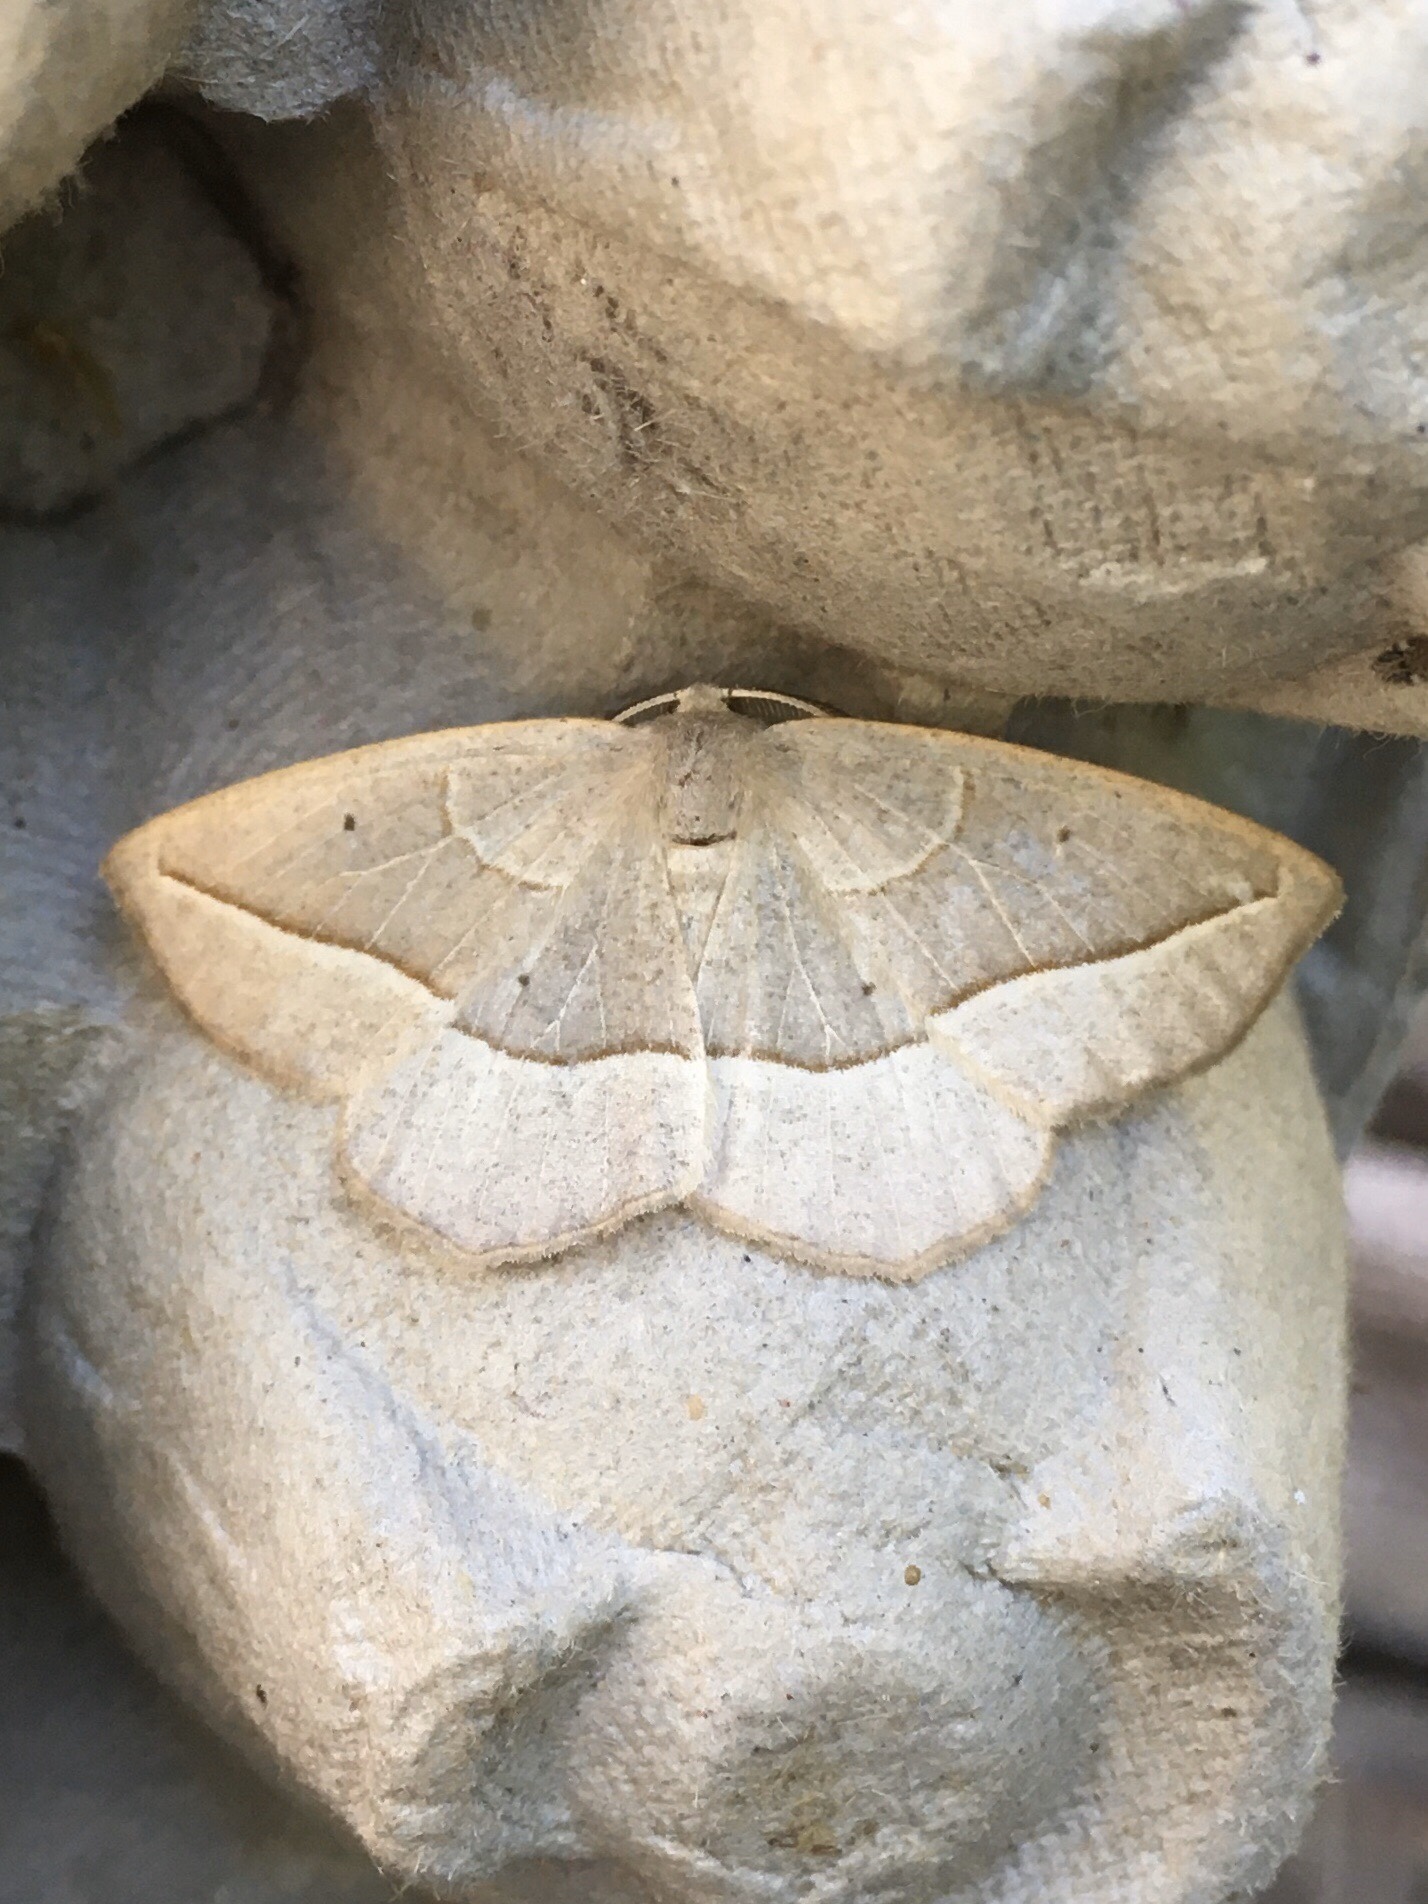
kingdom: Animalia
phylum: Arthropoda
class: Insecta
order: Lepidoptera
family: Geometridae
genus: Eusarca
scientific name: Eusarca confusaria
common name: Confused eusarca
